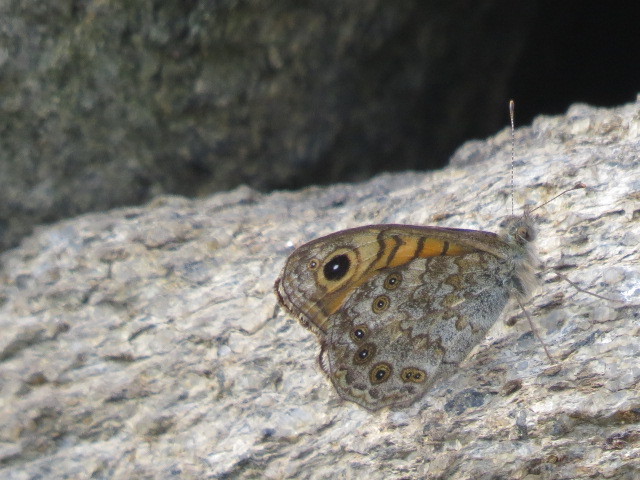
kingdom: Animalia
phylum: Arthropoda
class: Insecta
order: Lepidoptera
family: Nymphalidae
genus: Pararge
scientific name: Pararge Lasiommata megera
